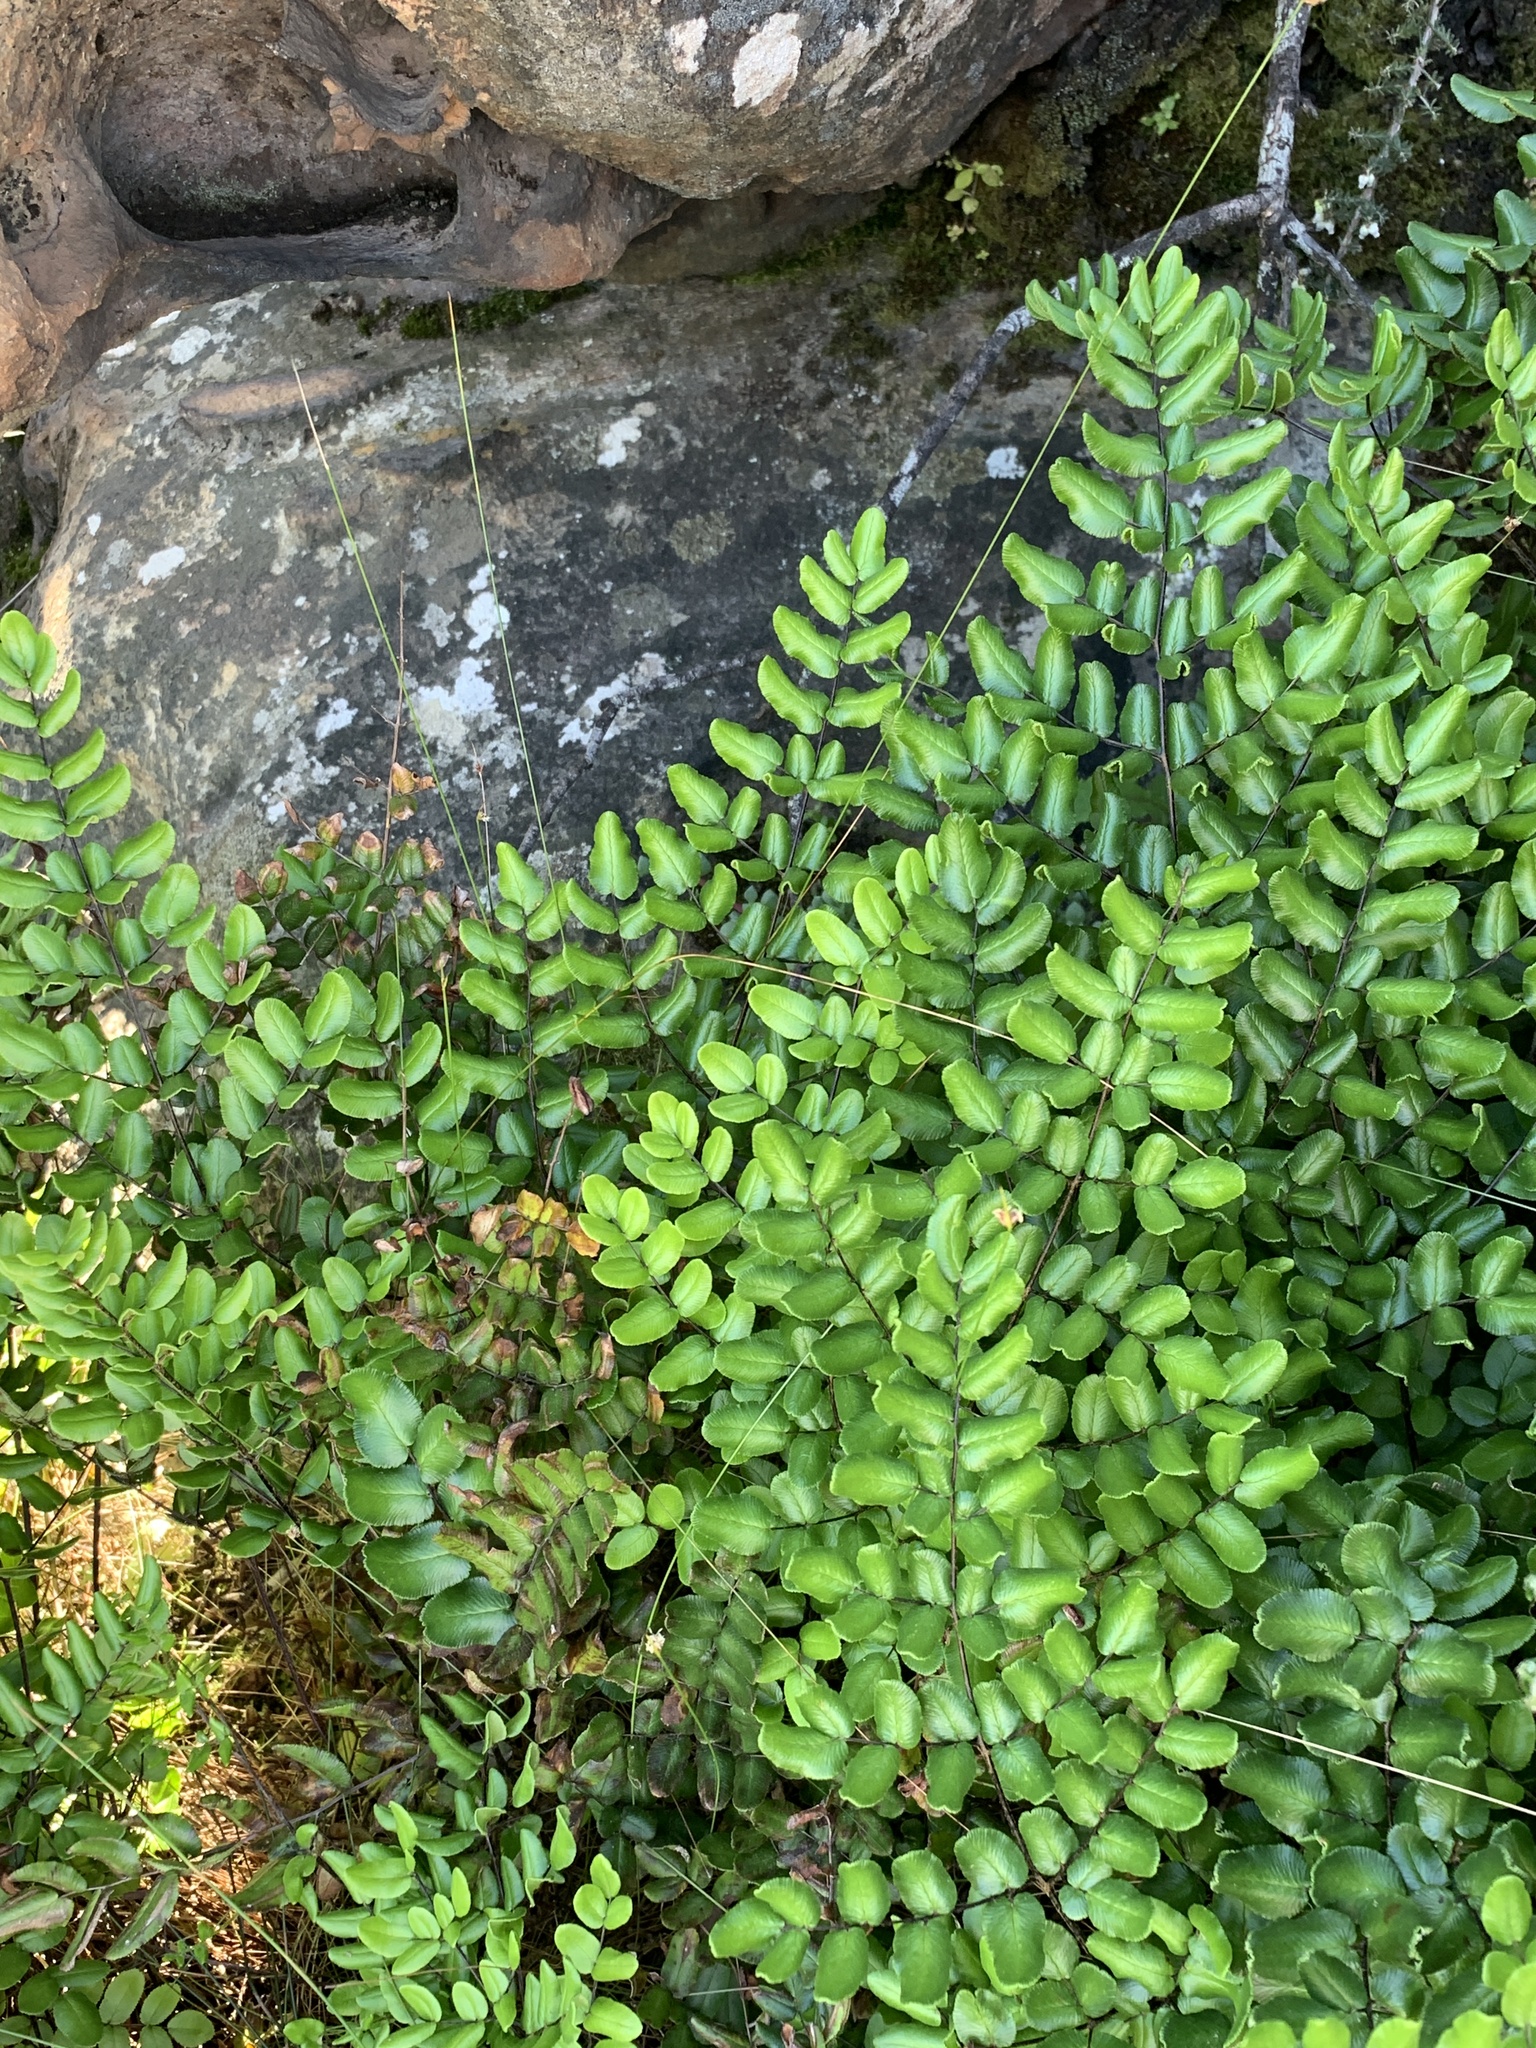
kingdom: Plantae
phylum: Tracheophyta
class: Polypodiopsida
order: Polypodiales
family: Pteridaceae
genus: Pellaea
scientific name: Pellaea pteroides
